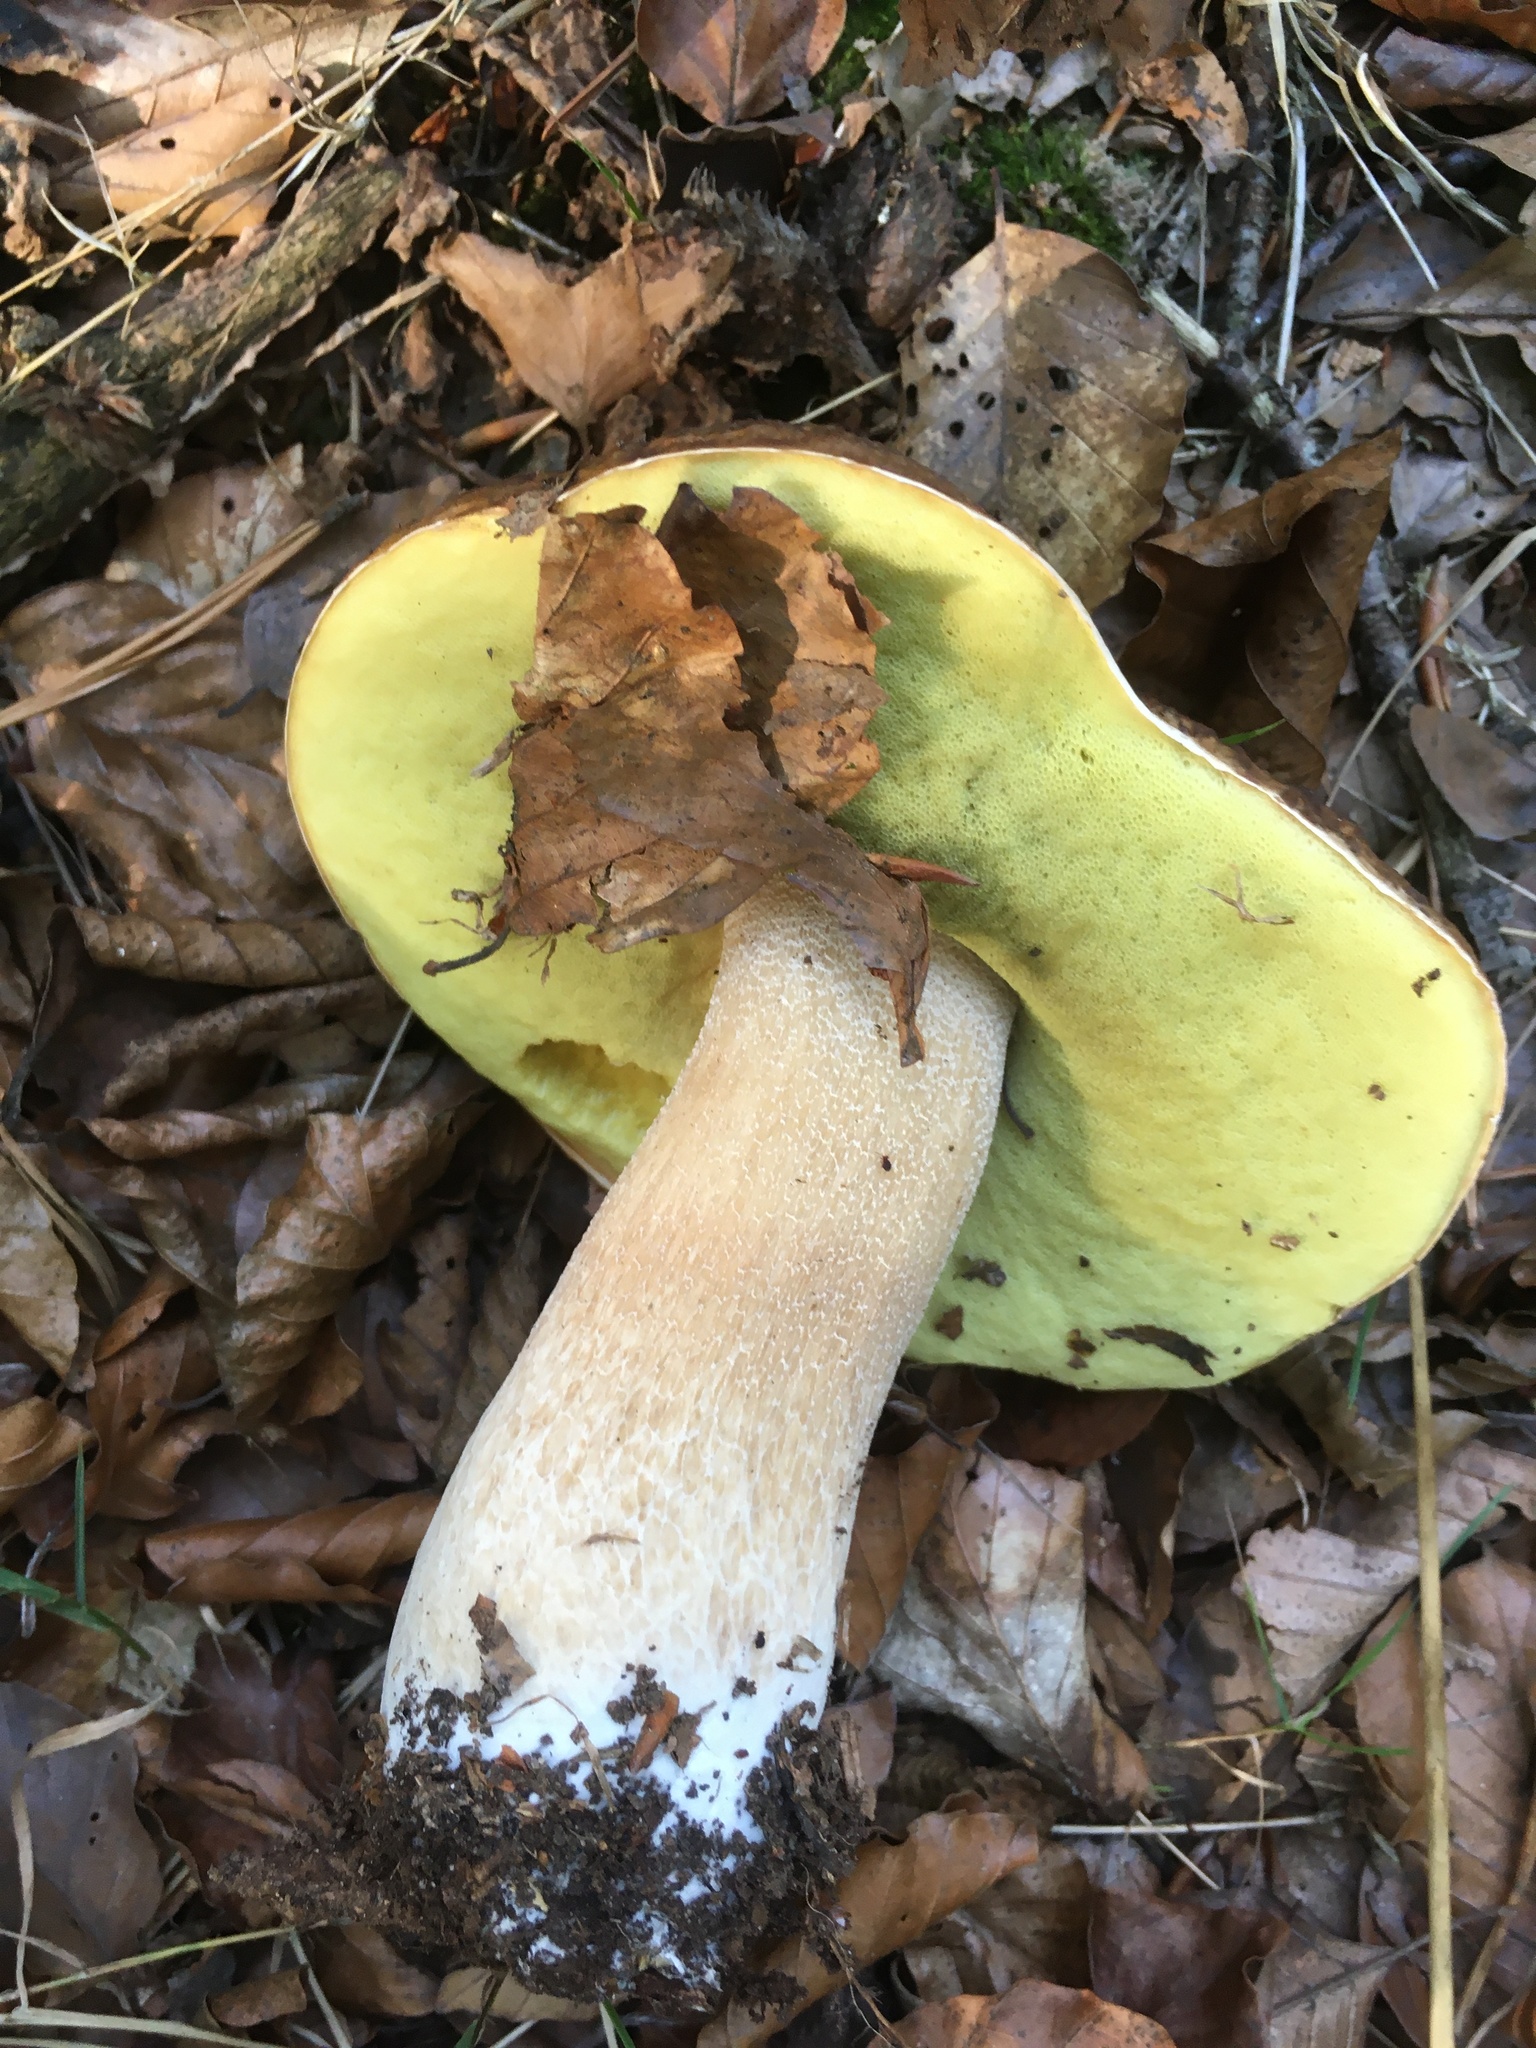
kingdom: Fungi
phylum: Basidiomycota
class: Agaricomycetes
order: Boletales
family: Boletaceae
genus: Boletus
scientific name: Boletus edulis
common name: Cep
